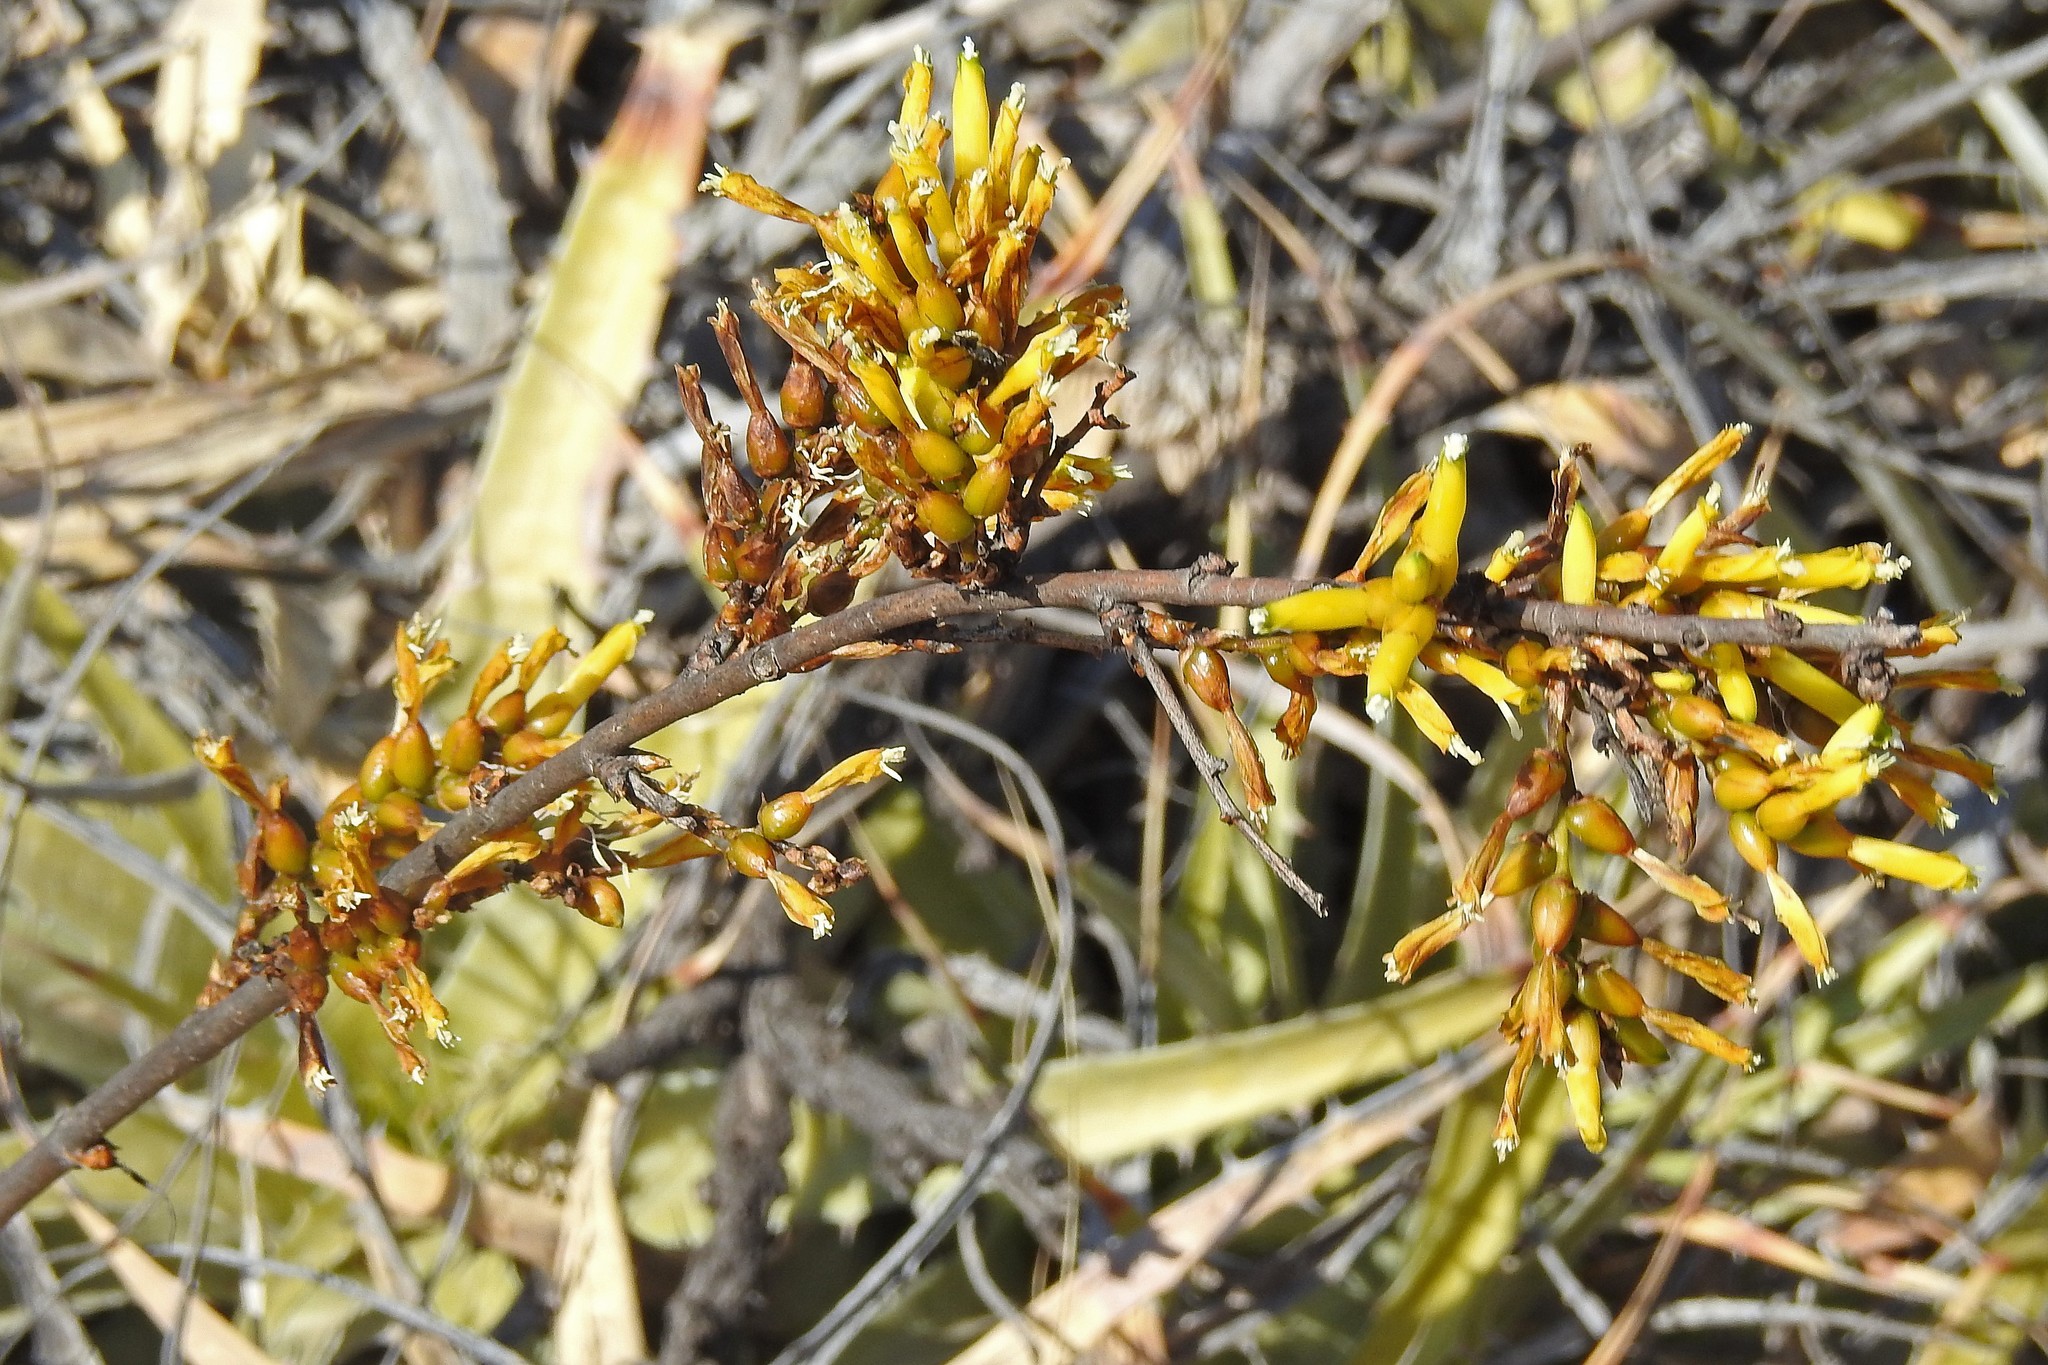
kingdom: Plantae
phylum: Tracheophyta
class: Liliopsida
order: Poales
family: Bromeliaceae
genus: Deuterocohnia
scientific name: Deuterocohnia longipetala
